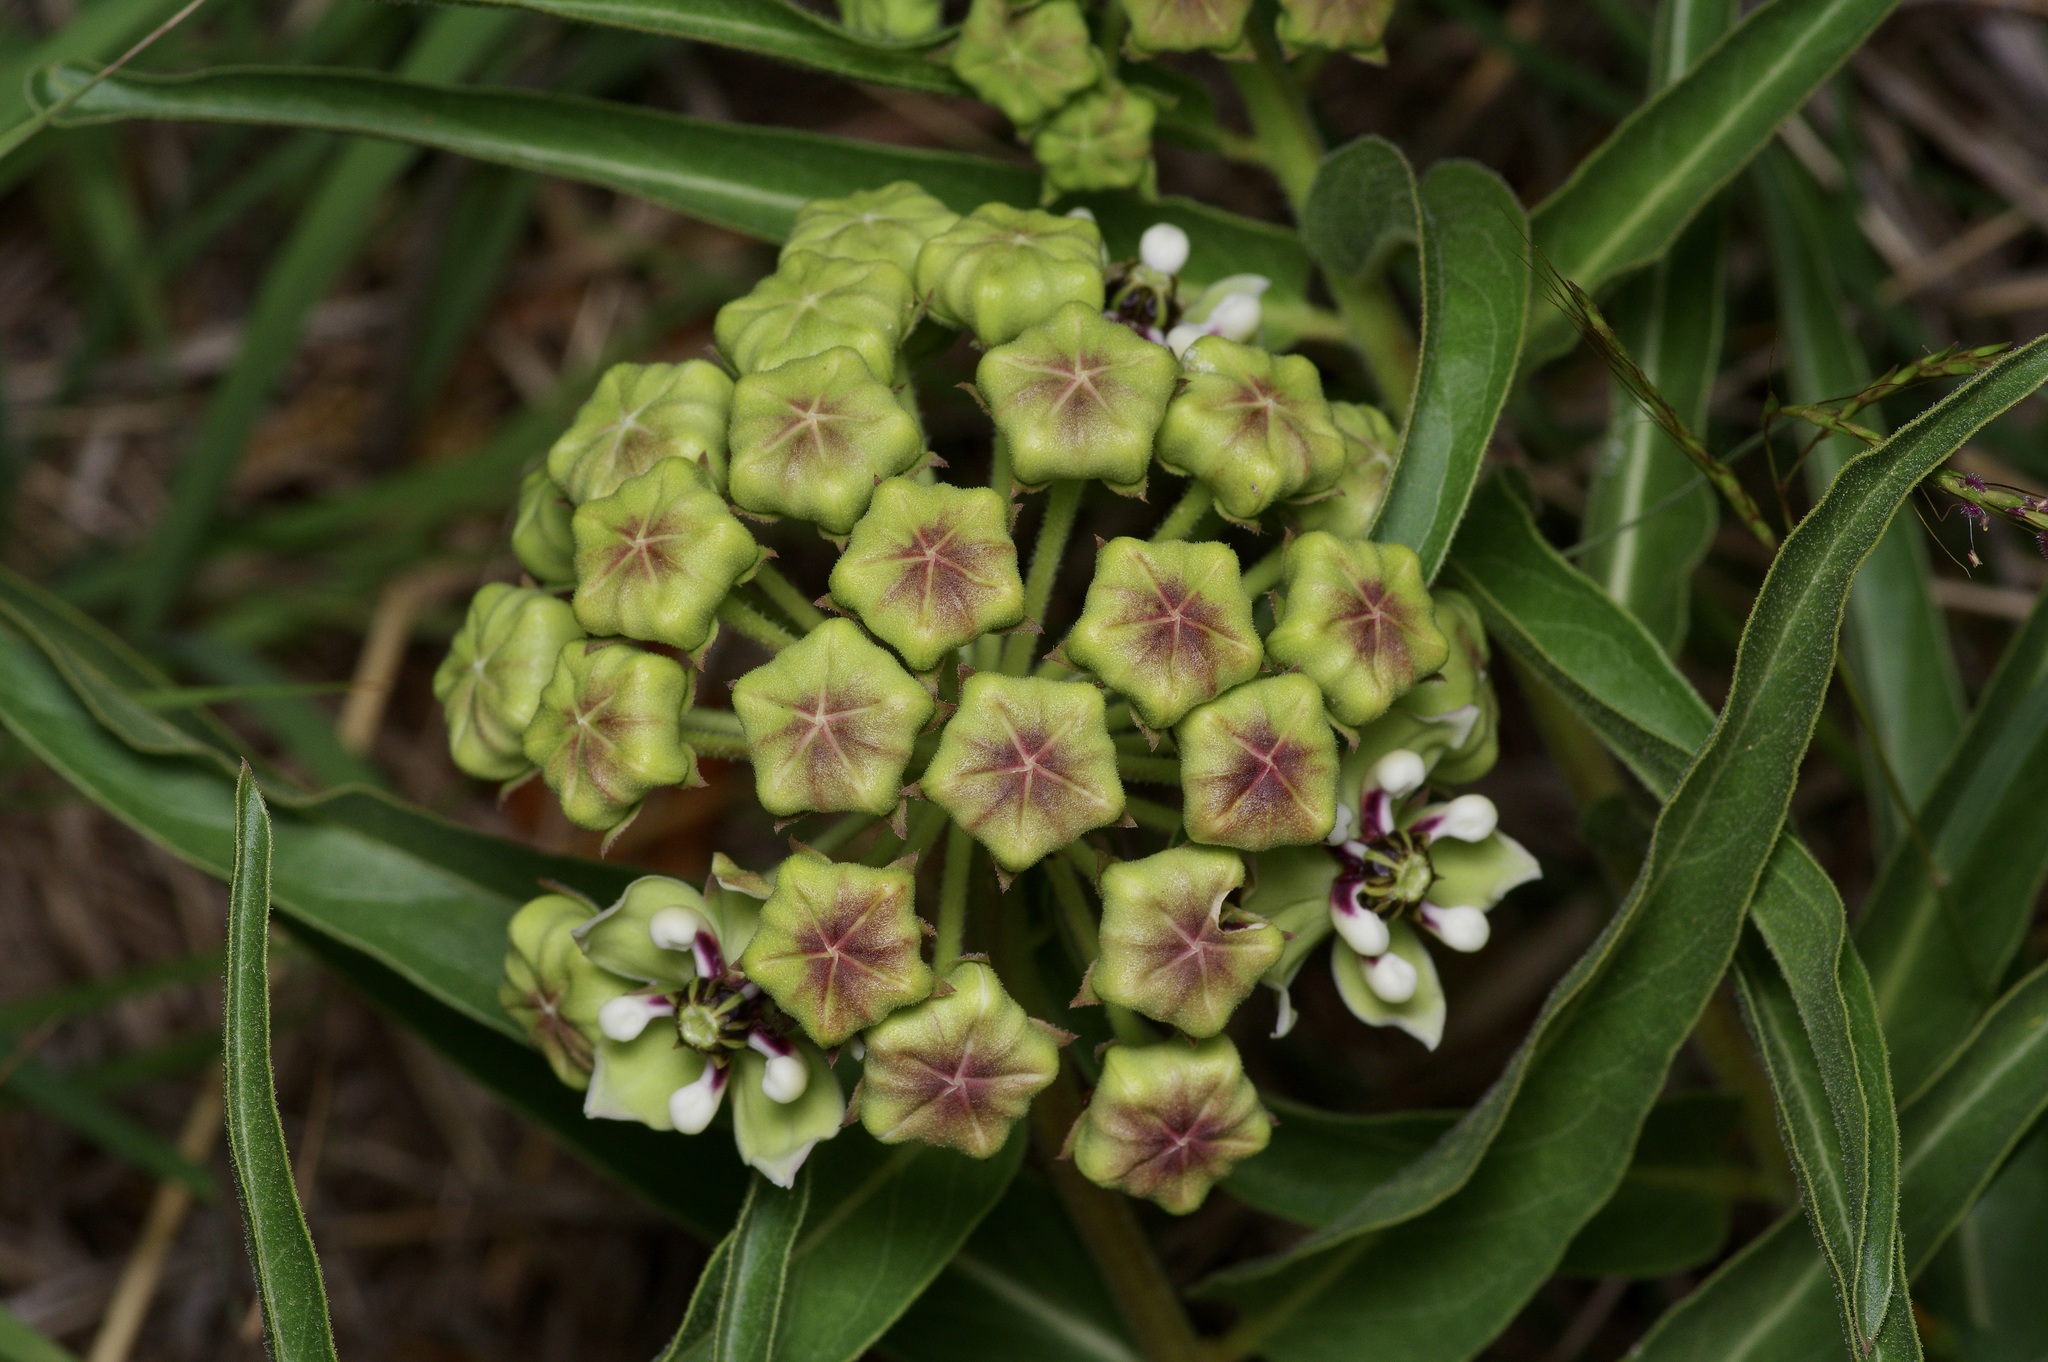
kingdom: Plantae
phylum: Tracheophyta
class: Magnoliopsida
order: Gentianales
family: Apocynaceae
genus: Asclepias
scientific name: Asclepias asperula
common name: Antelope horns
